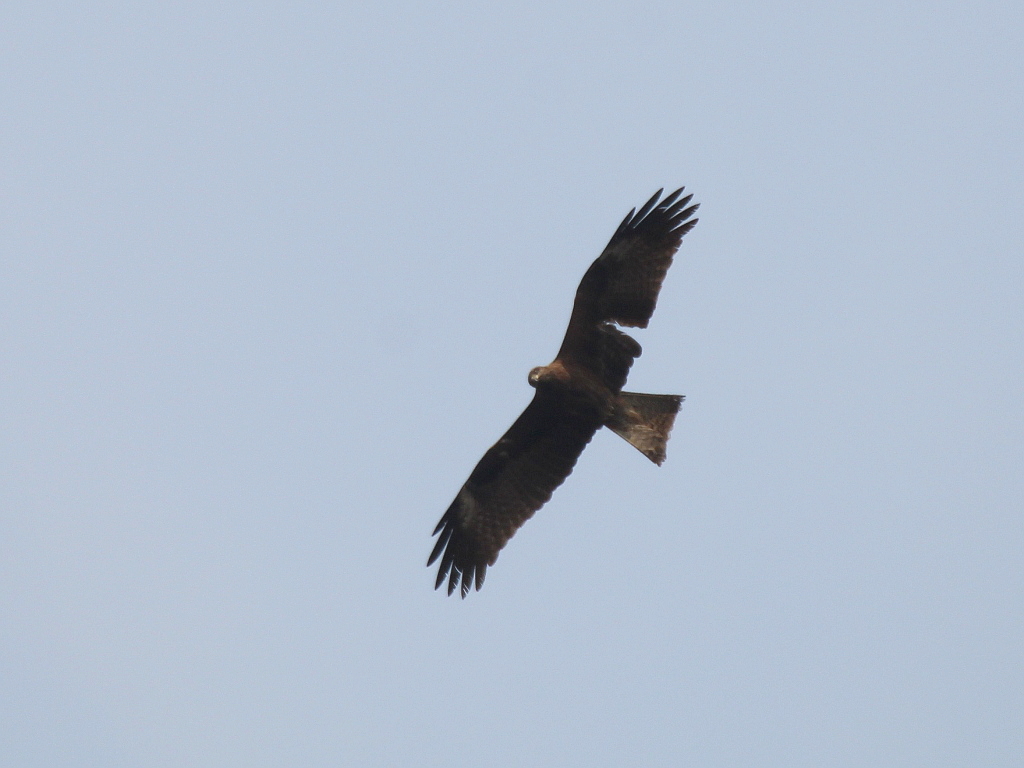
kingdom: Animalia
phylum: Chordata
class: Aves
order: Accipitriformes
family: Accipitridae
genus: Milvus
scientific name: Milvus migrans
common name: Black kite
